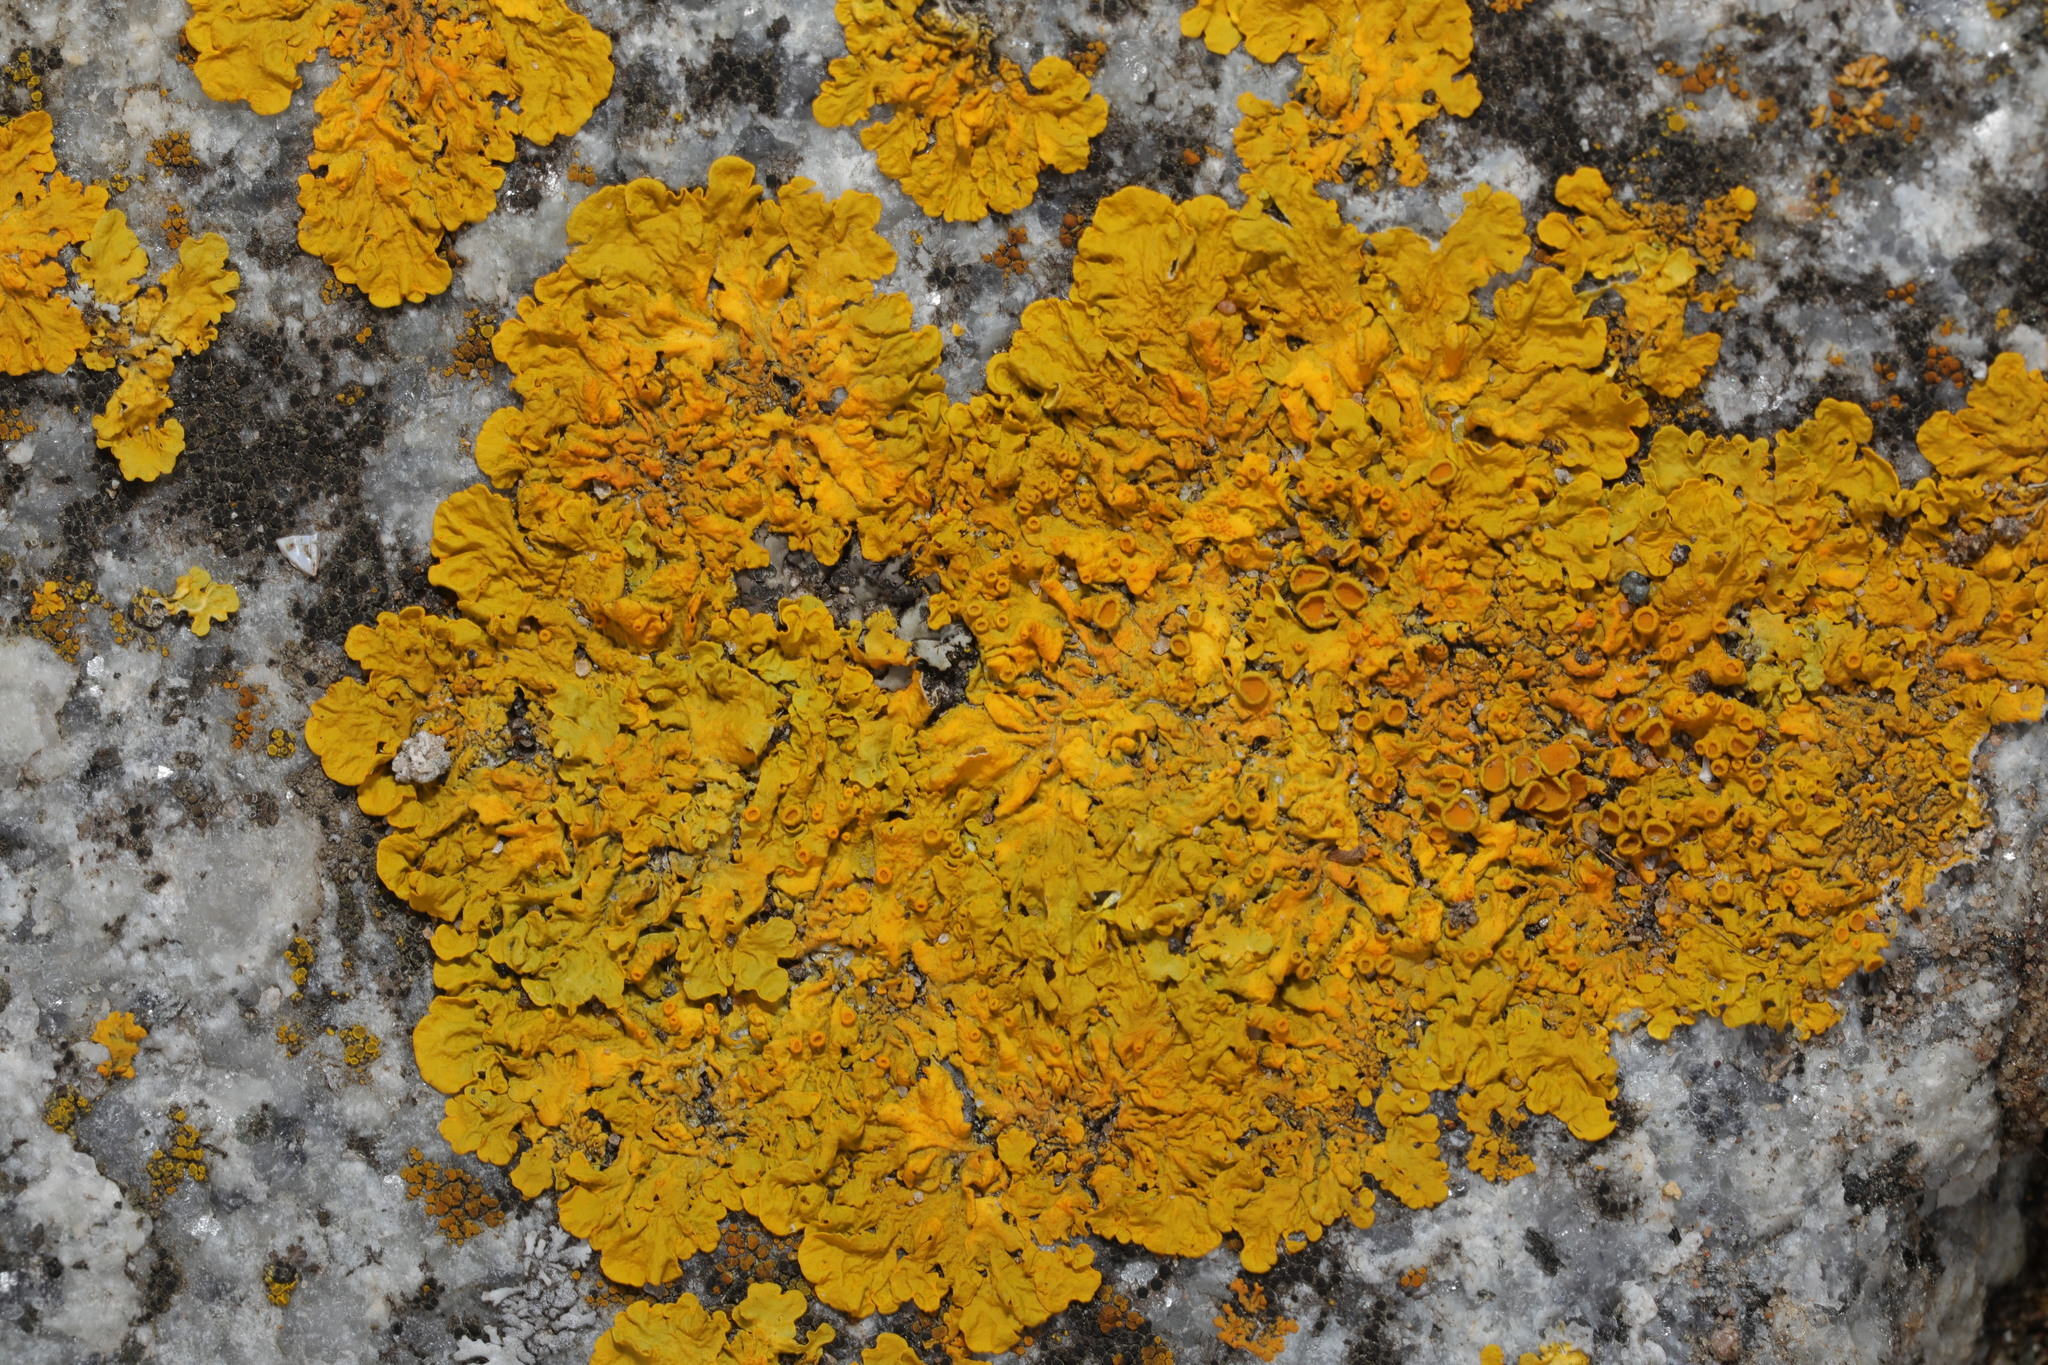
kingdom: Fungi
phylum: Ascomycota
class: Lecanoromycetes
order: Teloschistales
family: Teloschistaceae
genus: Xanthoria
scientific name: Xanthoria parietina
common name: Common orange lichen
